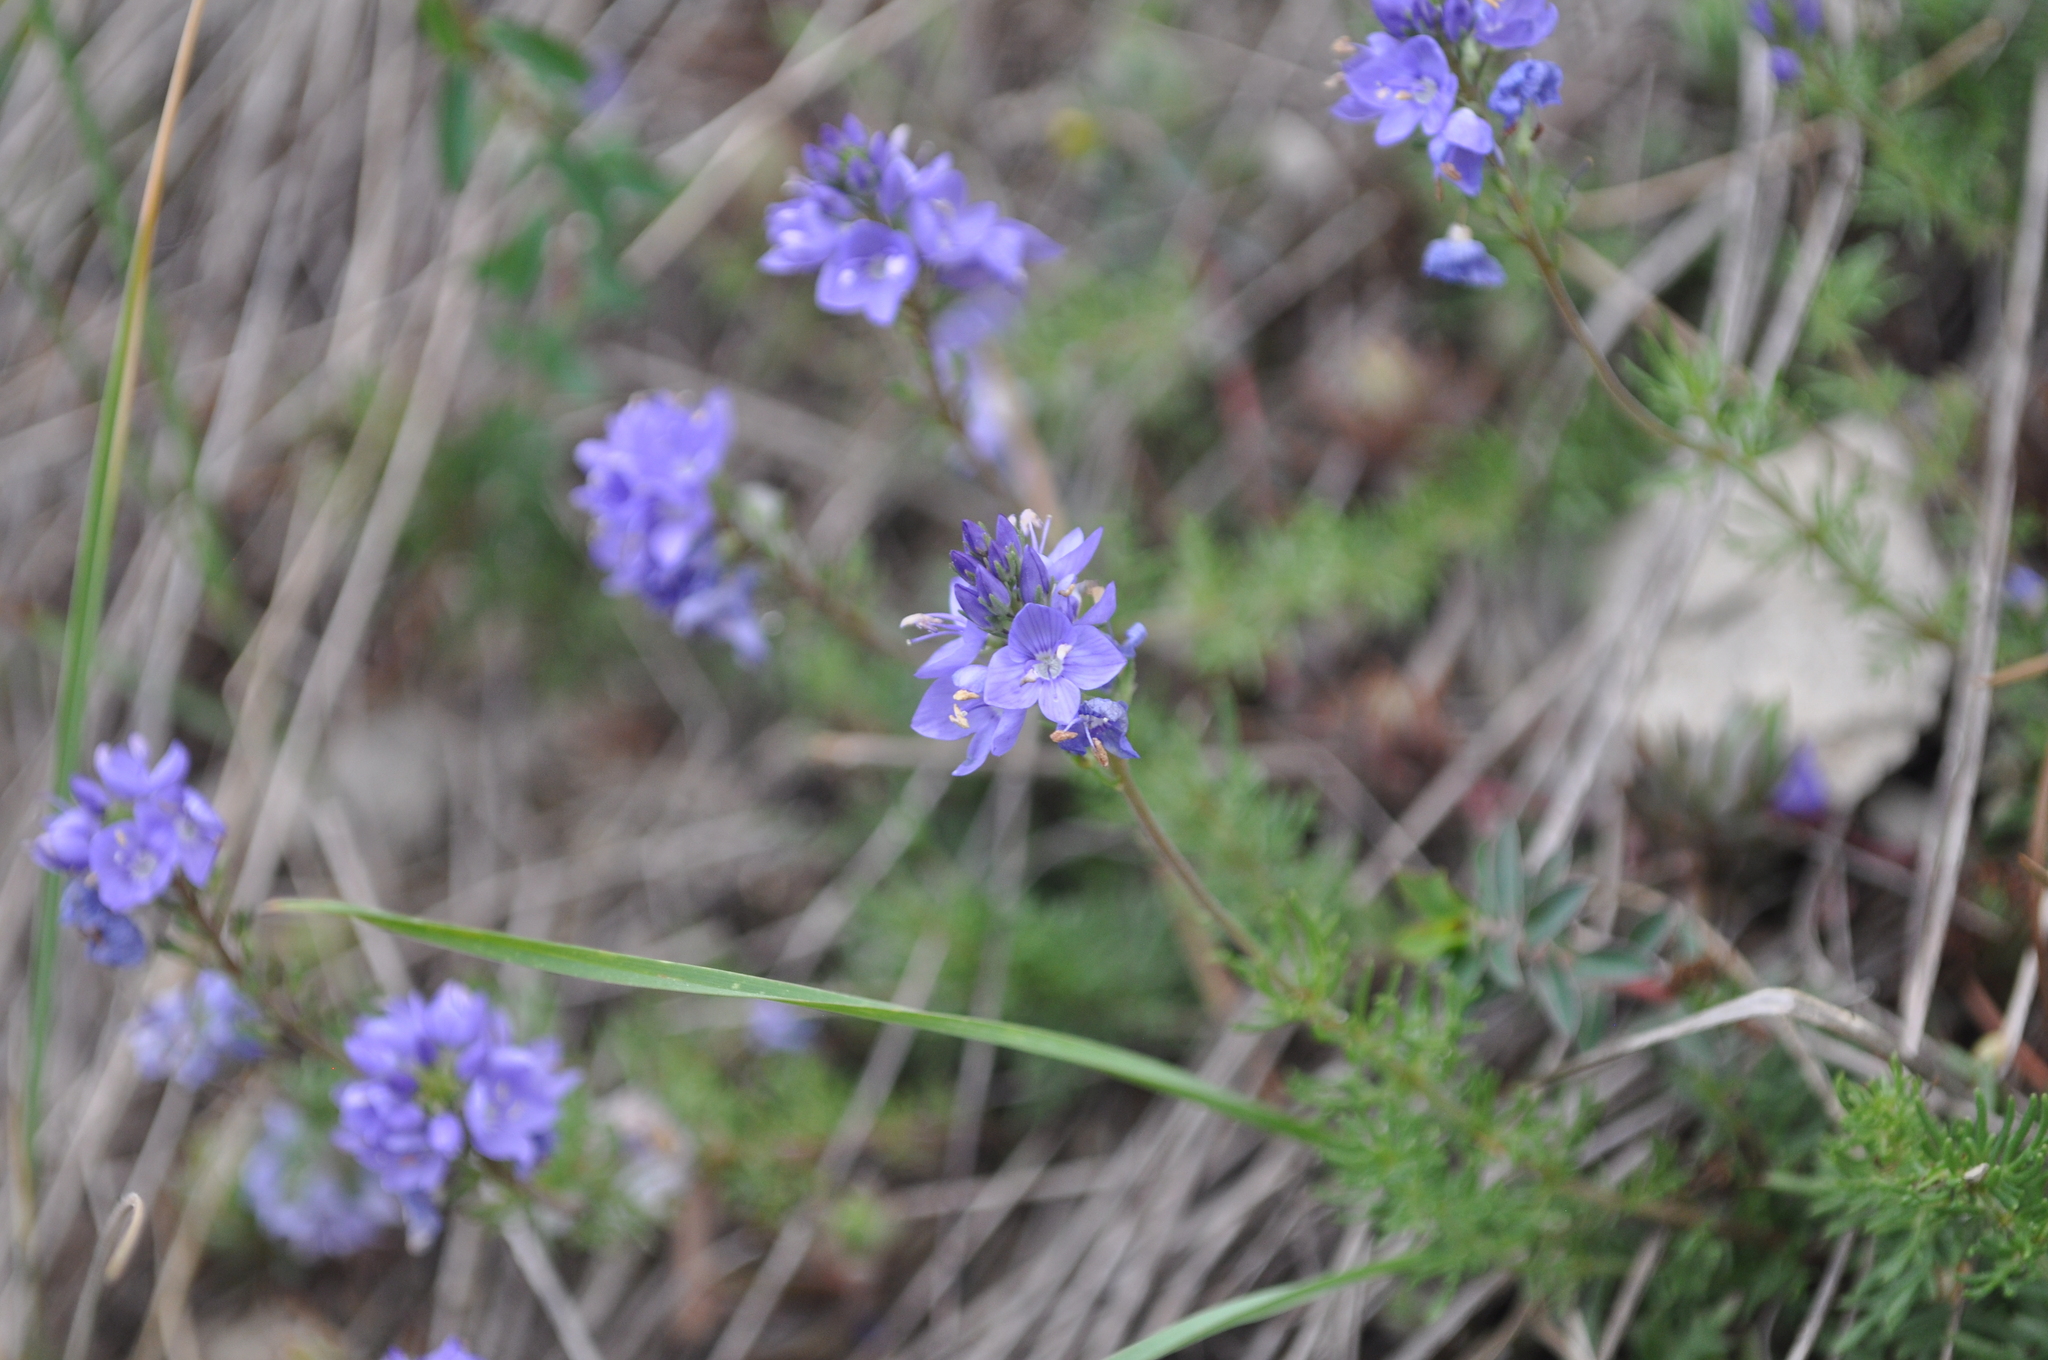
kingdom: Plantae
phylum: Tracheophyta
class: Magnoliopsida
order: Lamiales
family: Plantaginaceae
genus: Veronica
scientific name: Veronica tenuifolia
